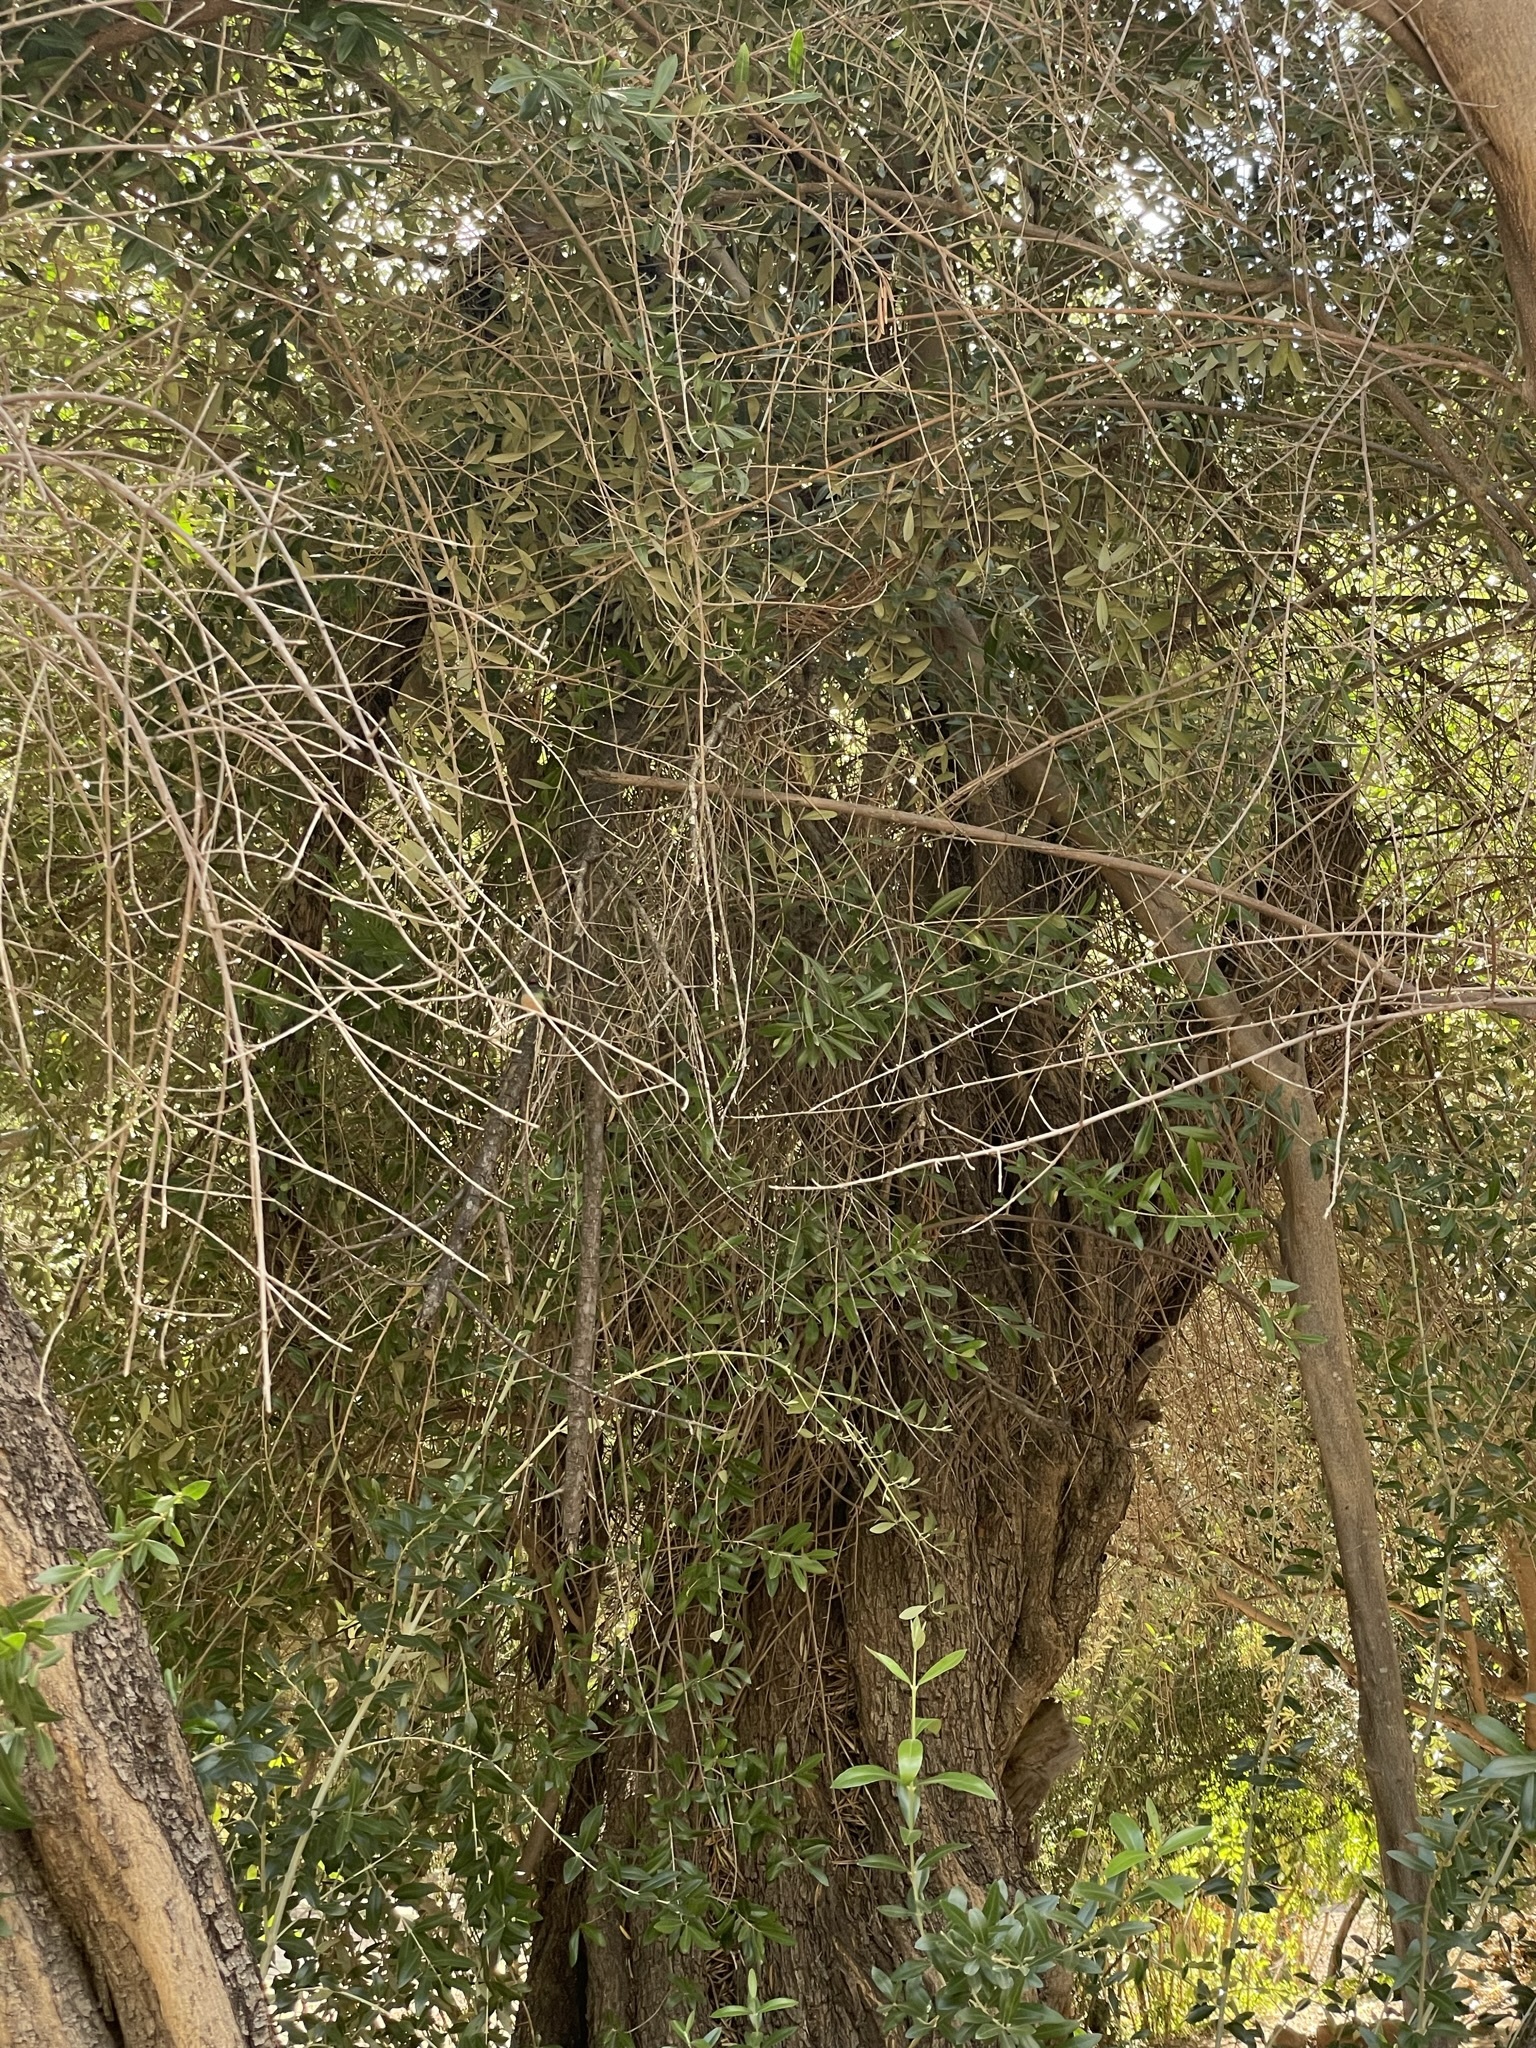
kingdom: Plantae
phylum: Tracheophyta
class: Magnoliopsida
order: Lamiales
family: Oleaceae
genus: Olea
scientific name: Olea europaea
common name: Olive
